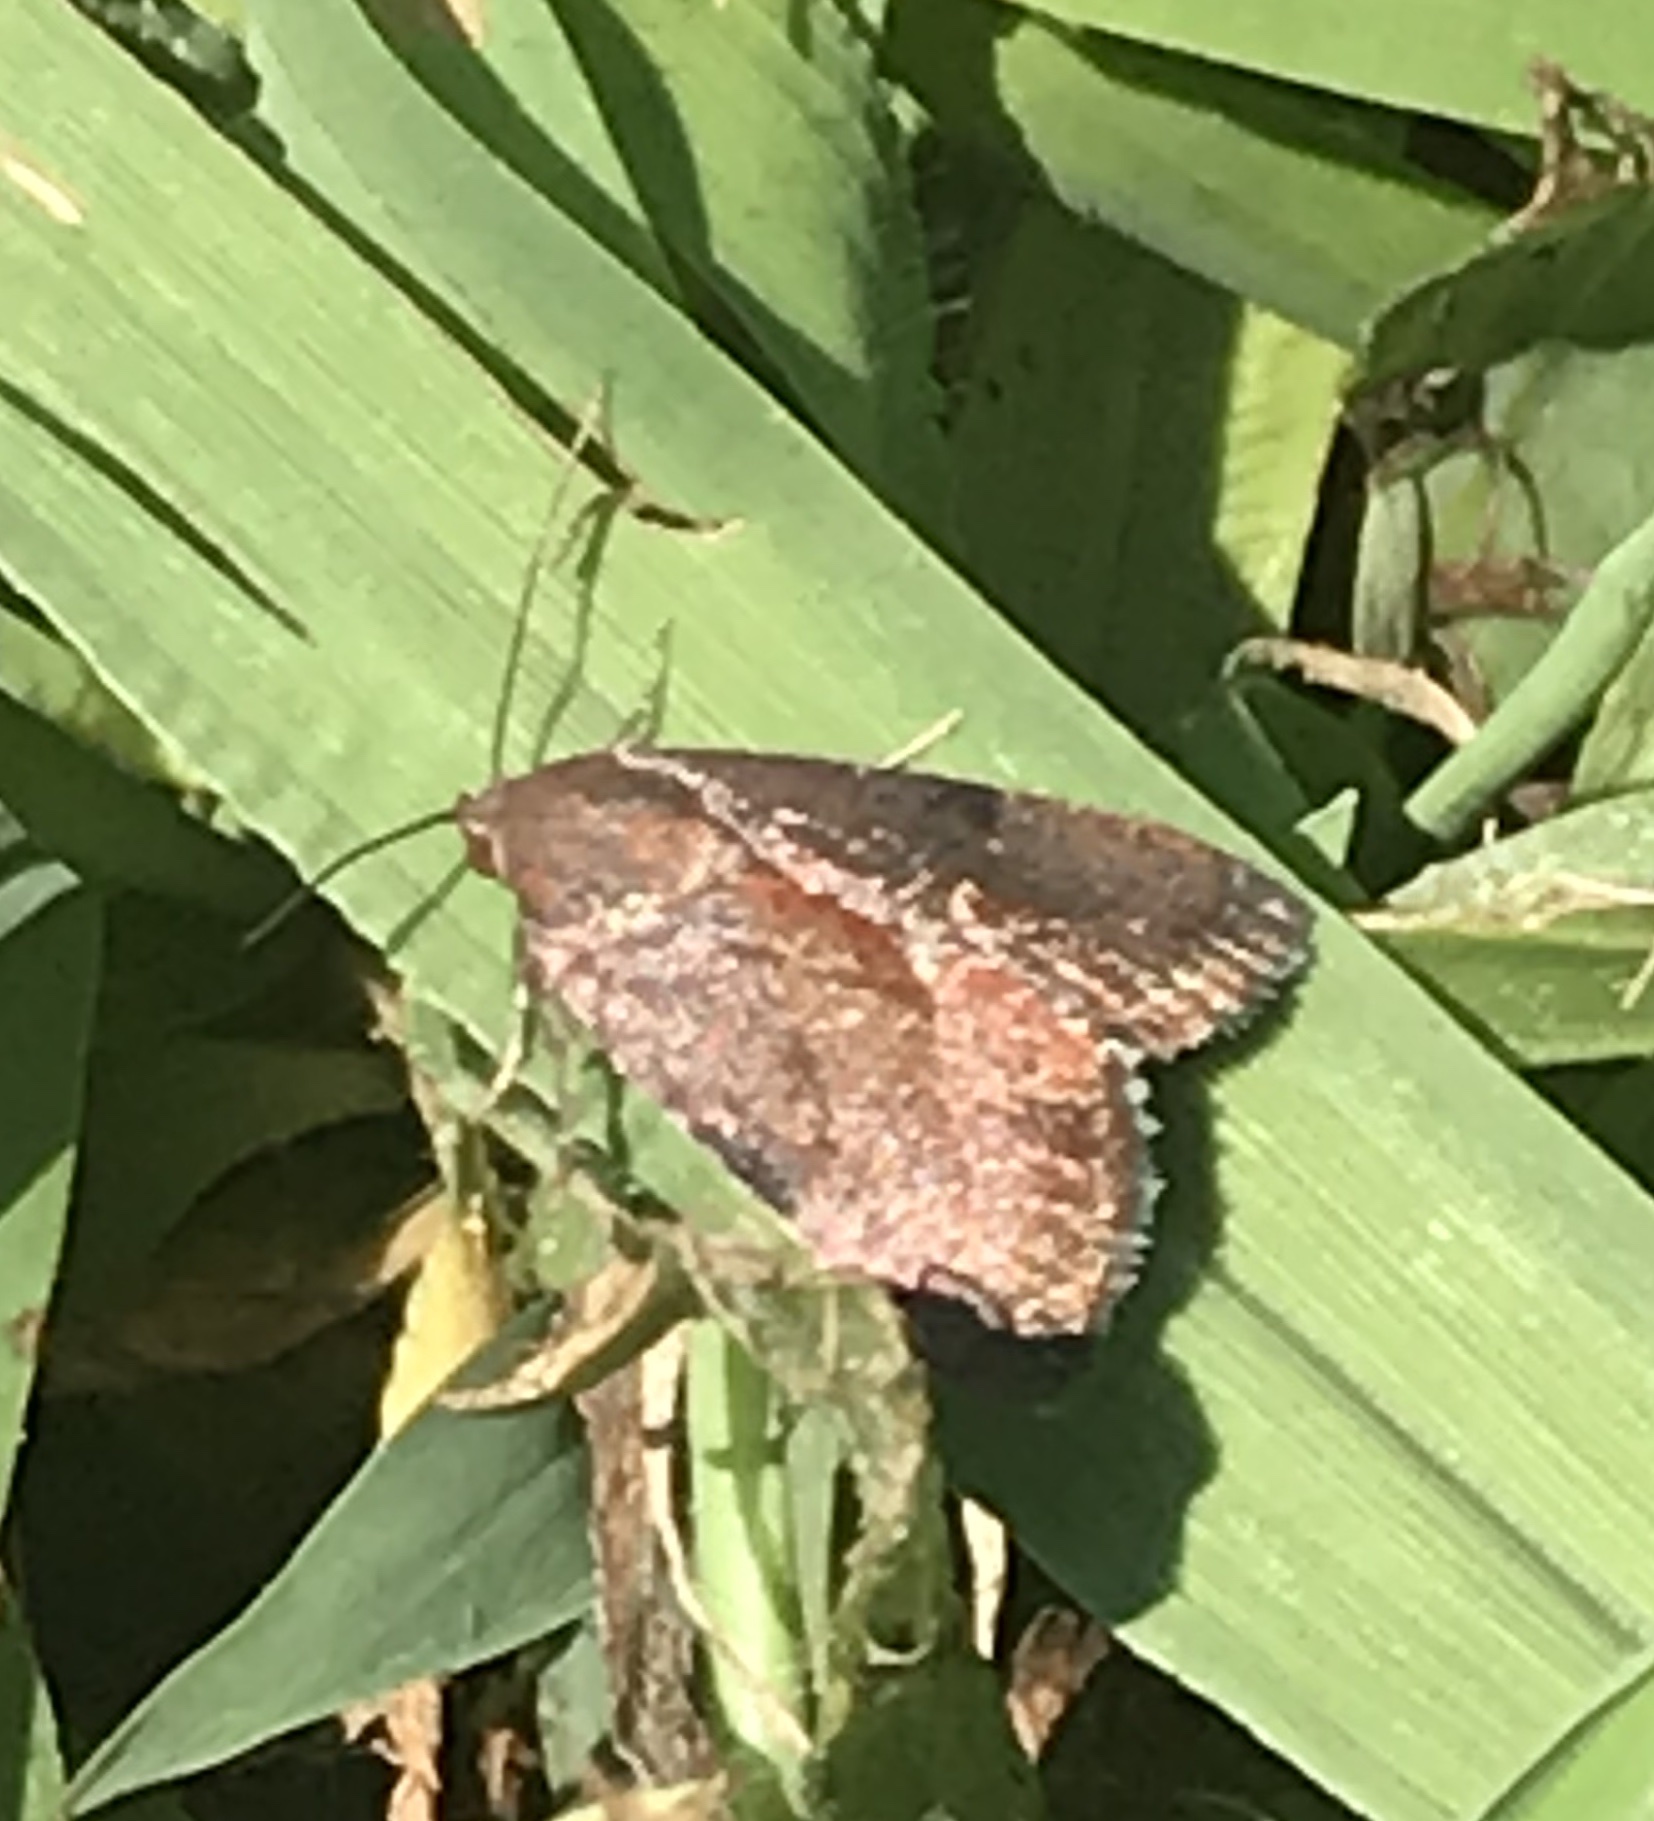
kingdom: Animalia
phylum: Arthropoda
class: Insecta
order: Lepidoptera
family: Noctuidae
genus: Galgula
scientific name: Galgula partita
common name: Wedgeling
